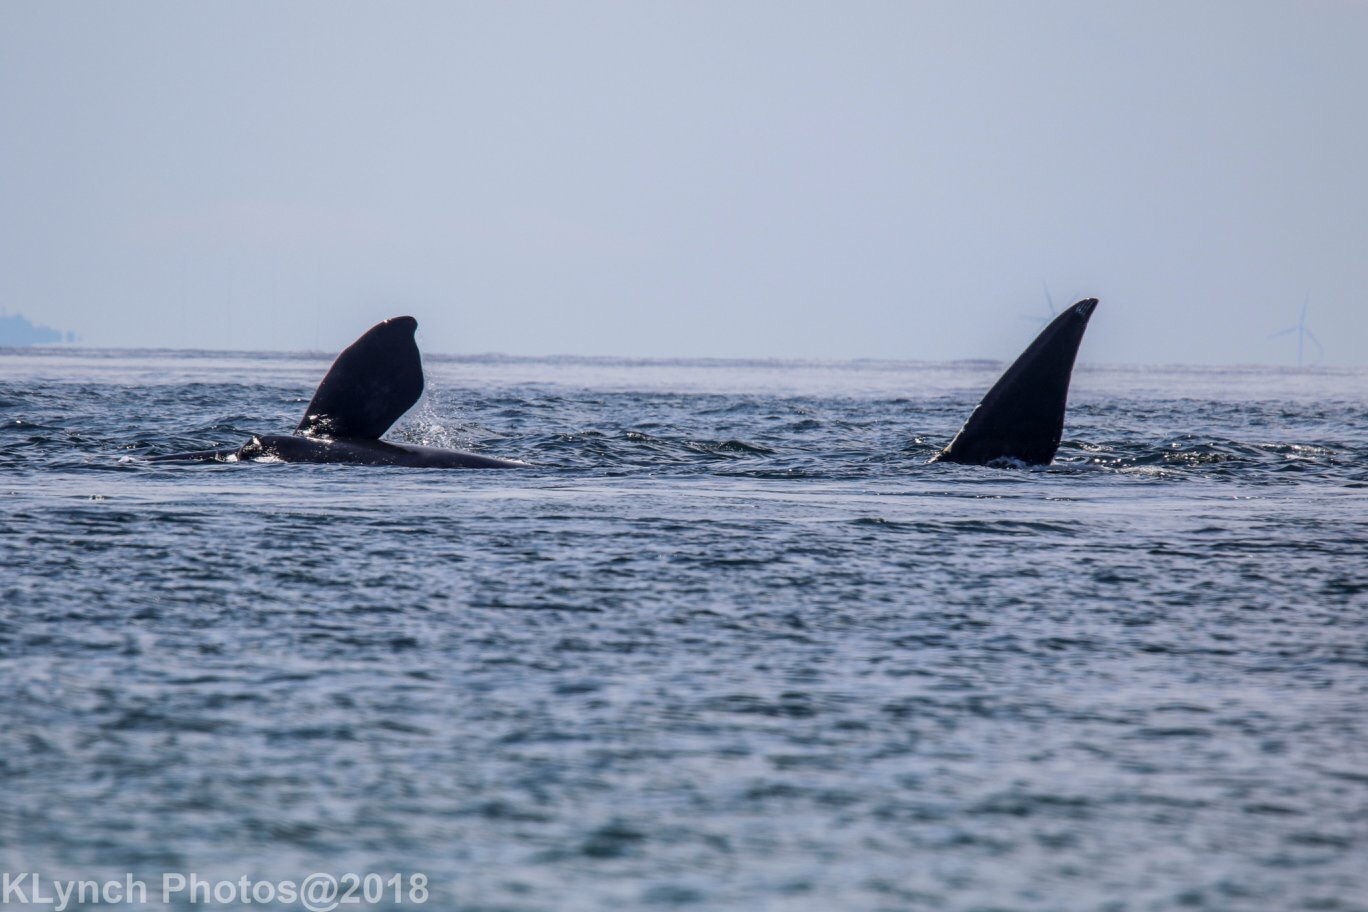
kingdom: Animalia
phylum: Chordata
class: Mammalia
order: Cetacea
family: Balaenidae
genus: Eubalaena
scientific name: Eubalaena glacialis
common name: North atlantic right whale
